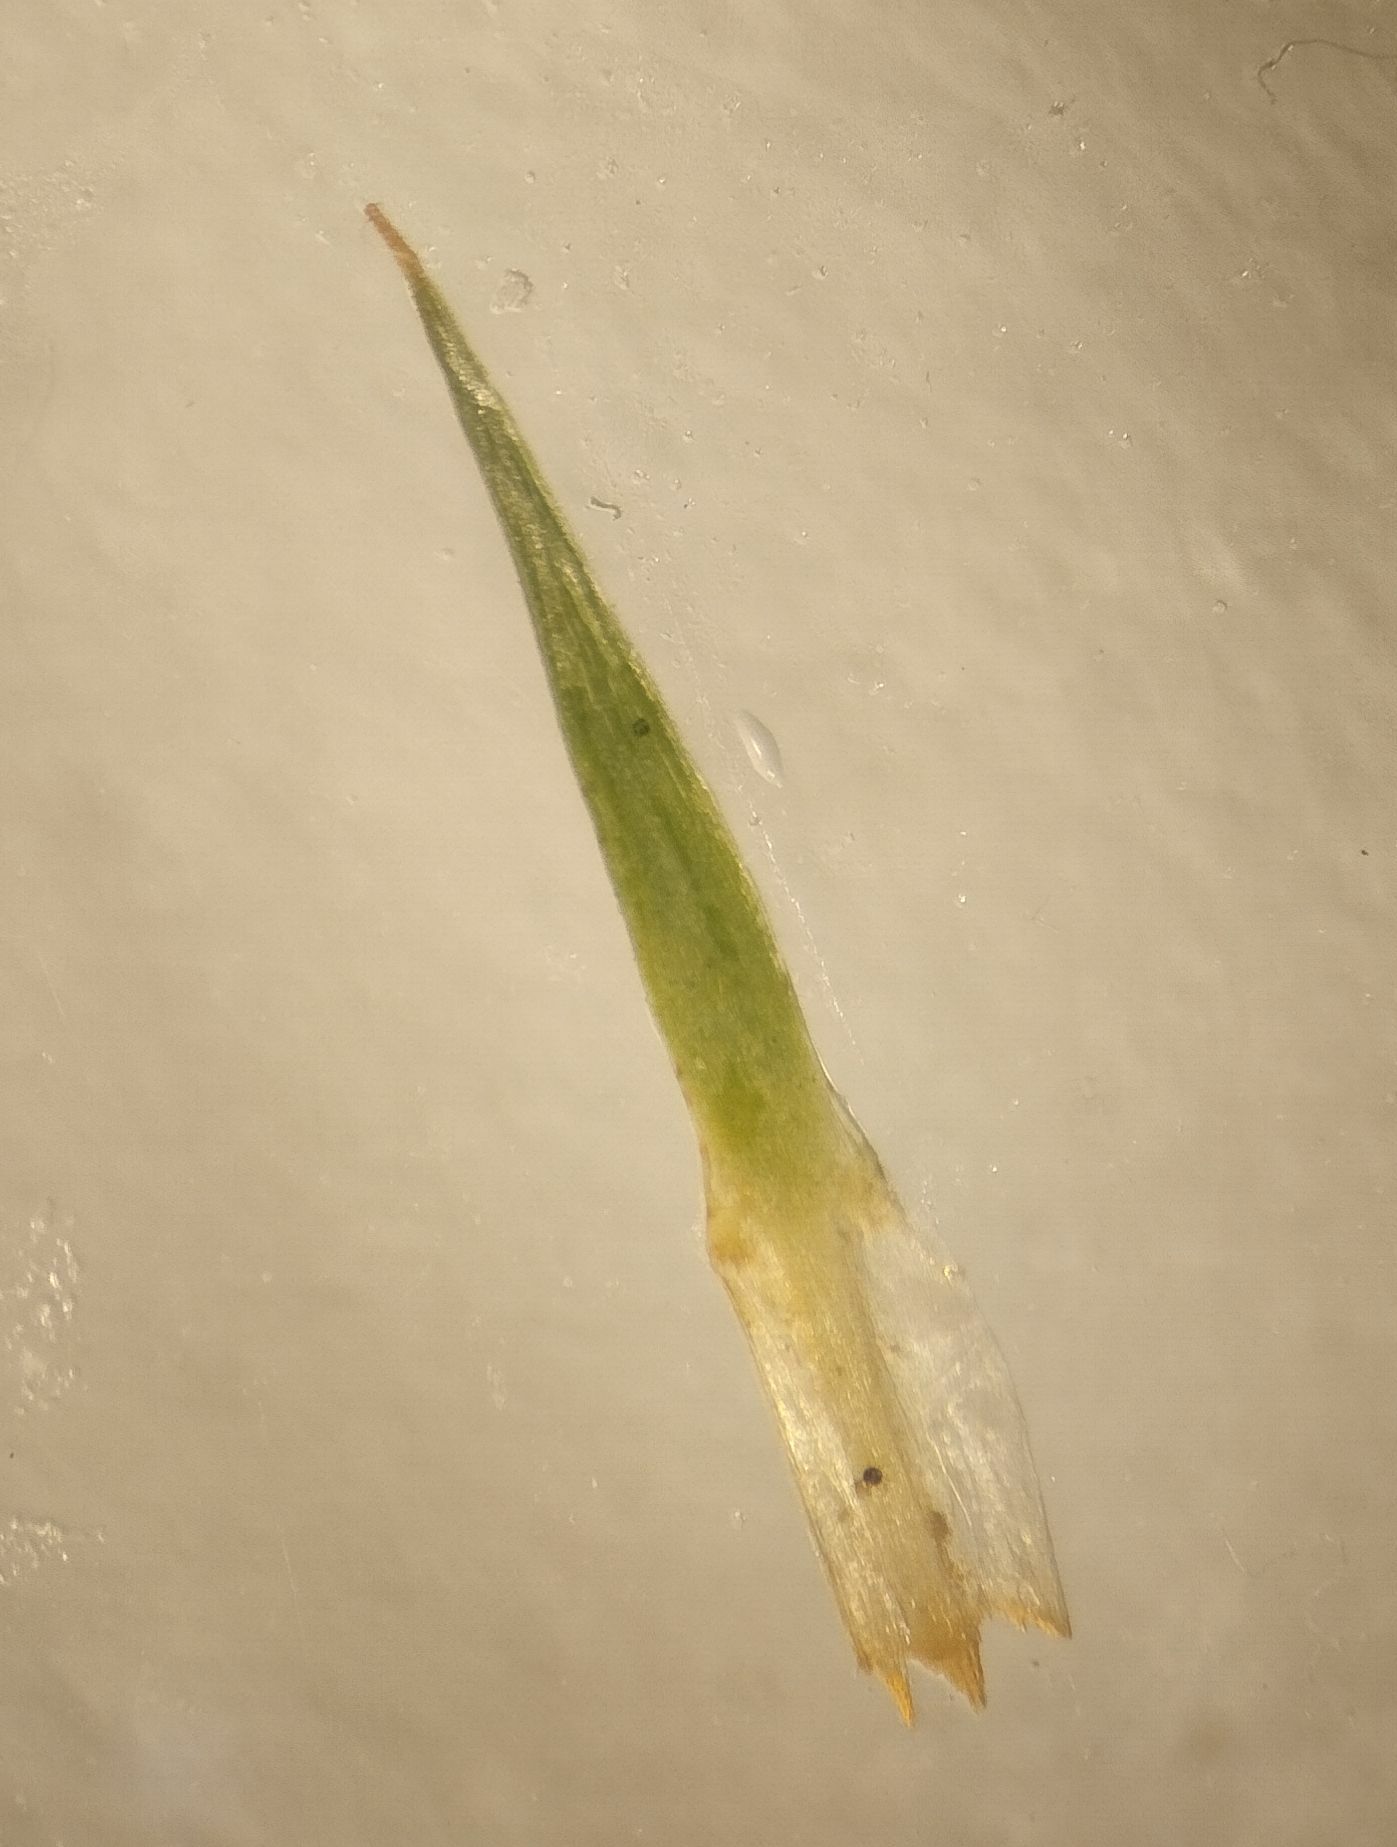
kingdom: Plantae
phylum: Bryophyta
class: Polytrichopsida
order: Polytrichales
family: Polytrichaceae
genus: Polytrichum
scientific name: Polytrichum juniperinum
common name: Juniper haircap moss
